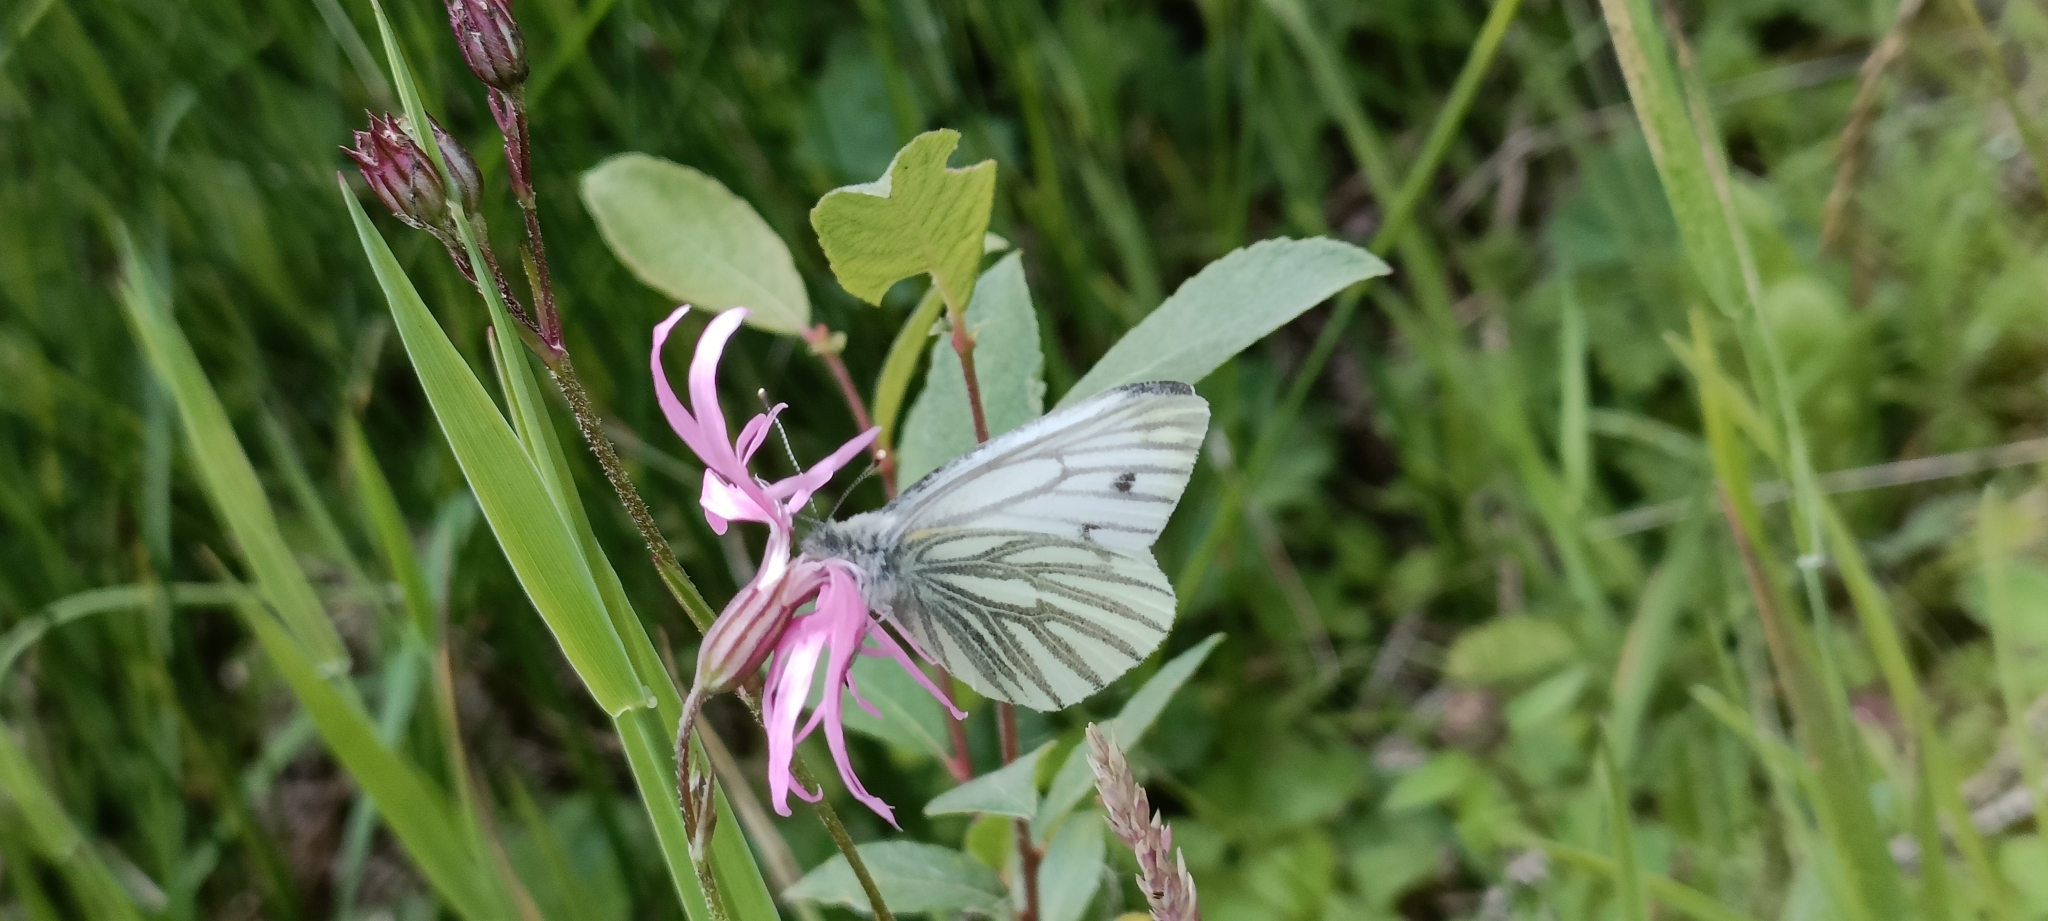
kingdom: Animalia
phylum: Arthropoda
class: Insecta
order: Lepidoptera
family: Pieridae
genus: Pieris
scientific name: Pieris napi
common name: Green-veined white
